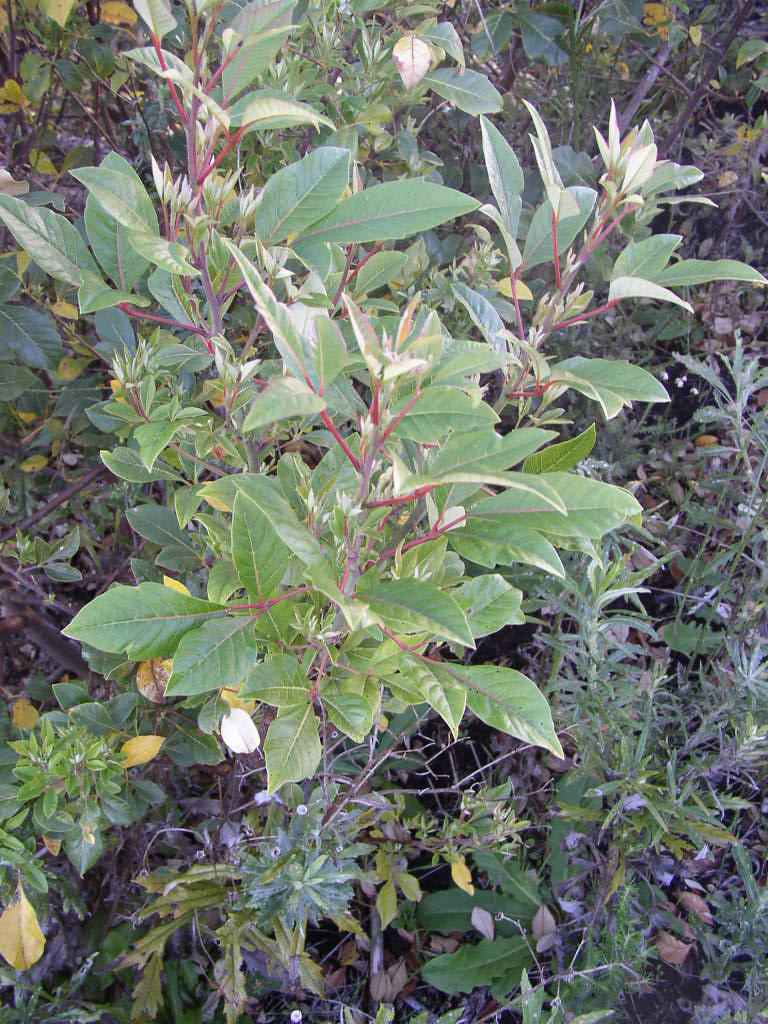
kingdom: Plantae
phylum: Tracheophyta
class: Magnoliopsida
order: Sapindales
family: Anacardiaceae
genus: Searsia
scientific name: Searsia tomentosa
